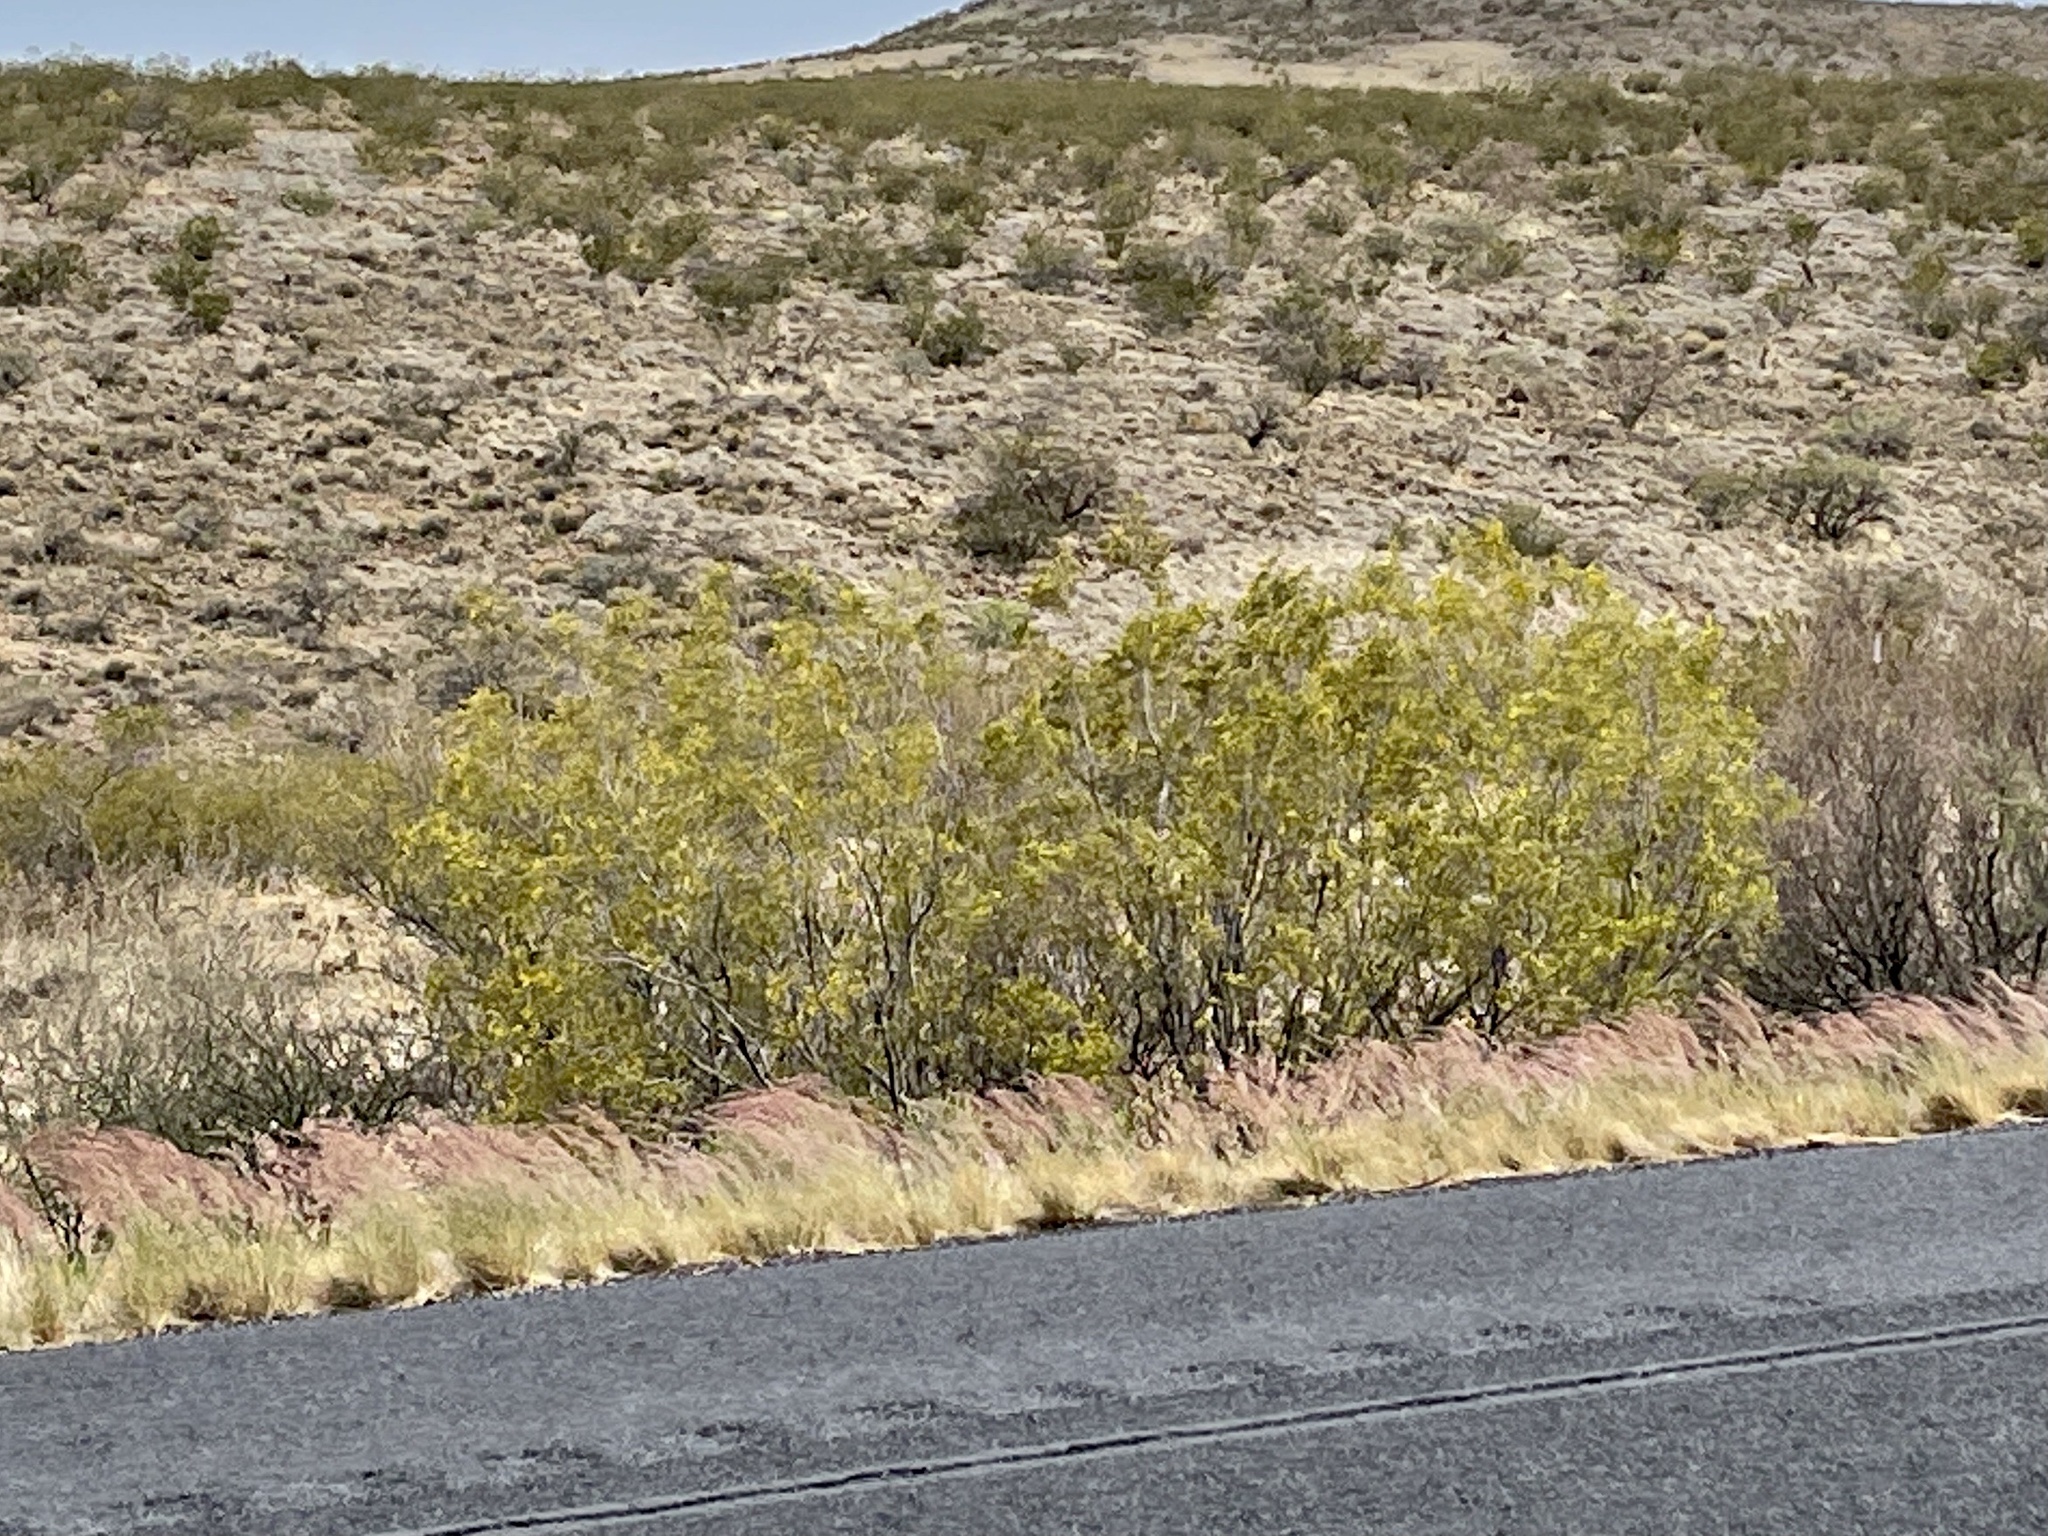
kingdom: Plantae
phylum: Tracheophyta
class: Magnoliopsida
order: Zygophyllales
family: Zygophyllaceae
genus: Larrea
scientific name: Larrea tridentata
